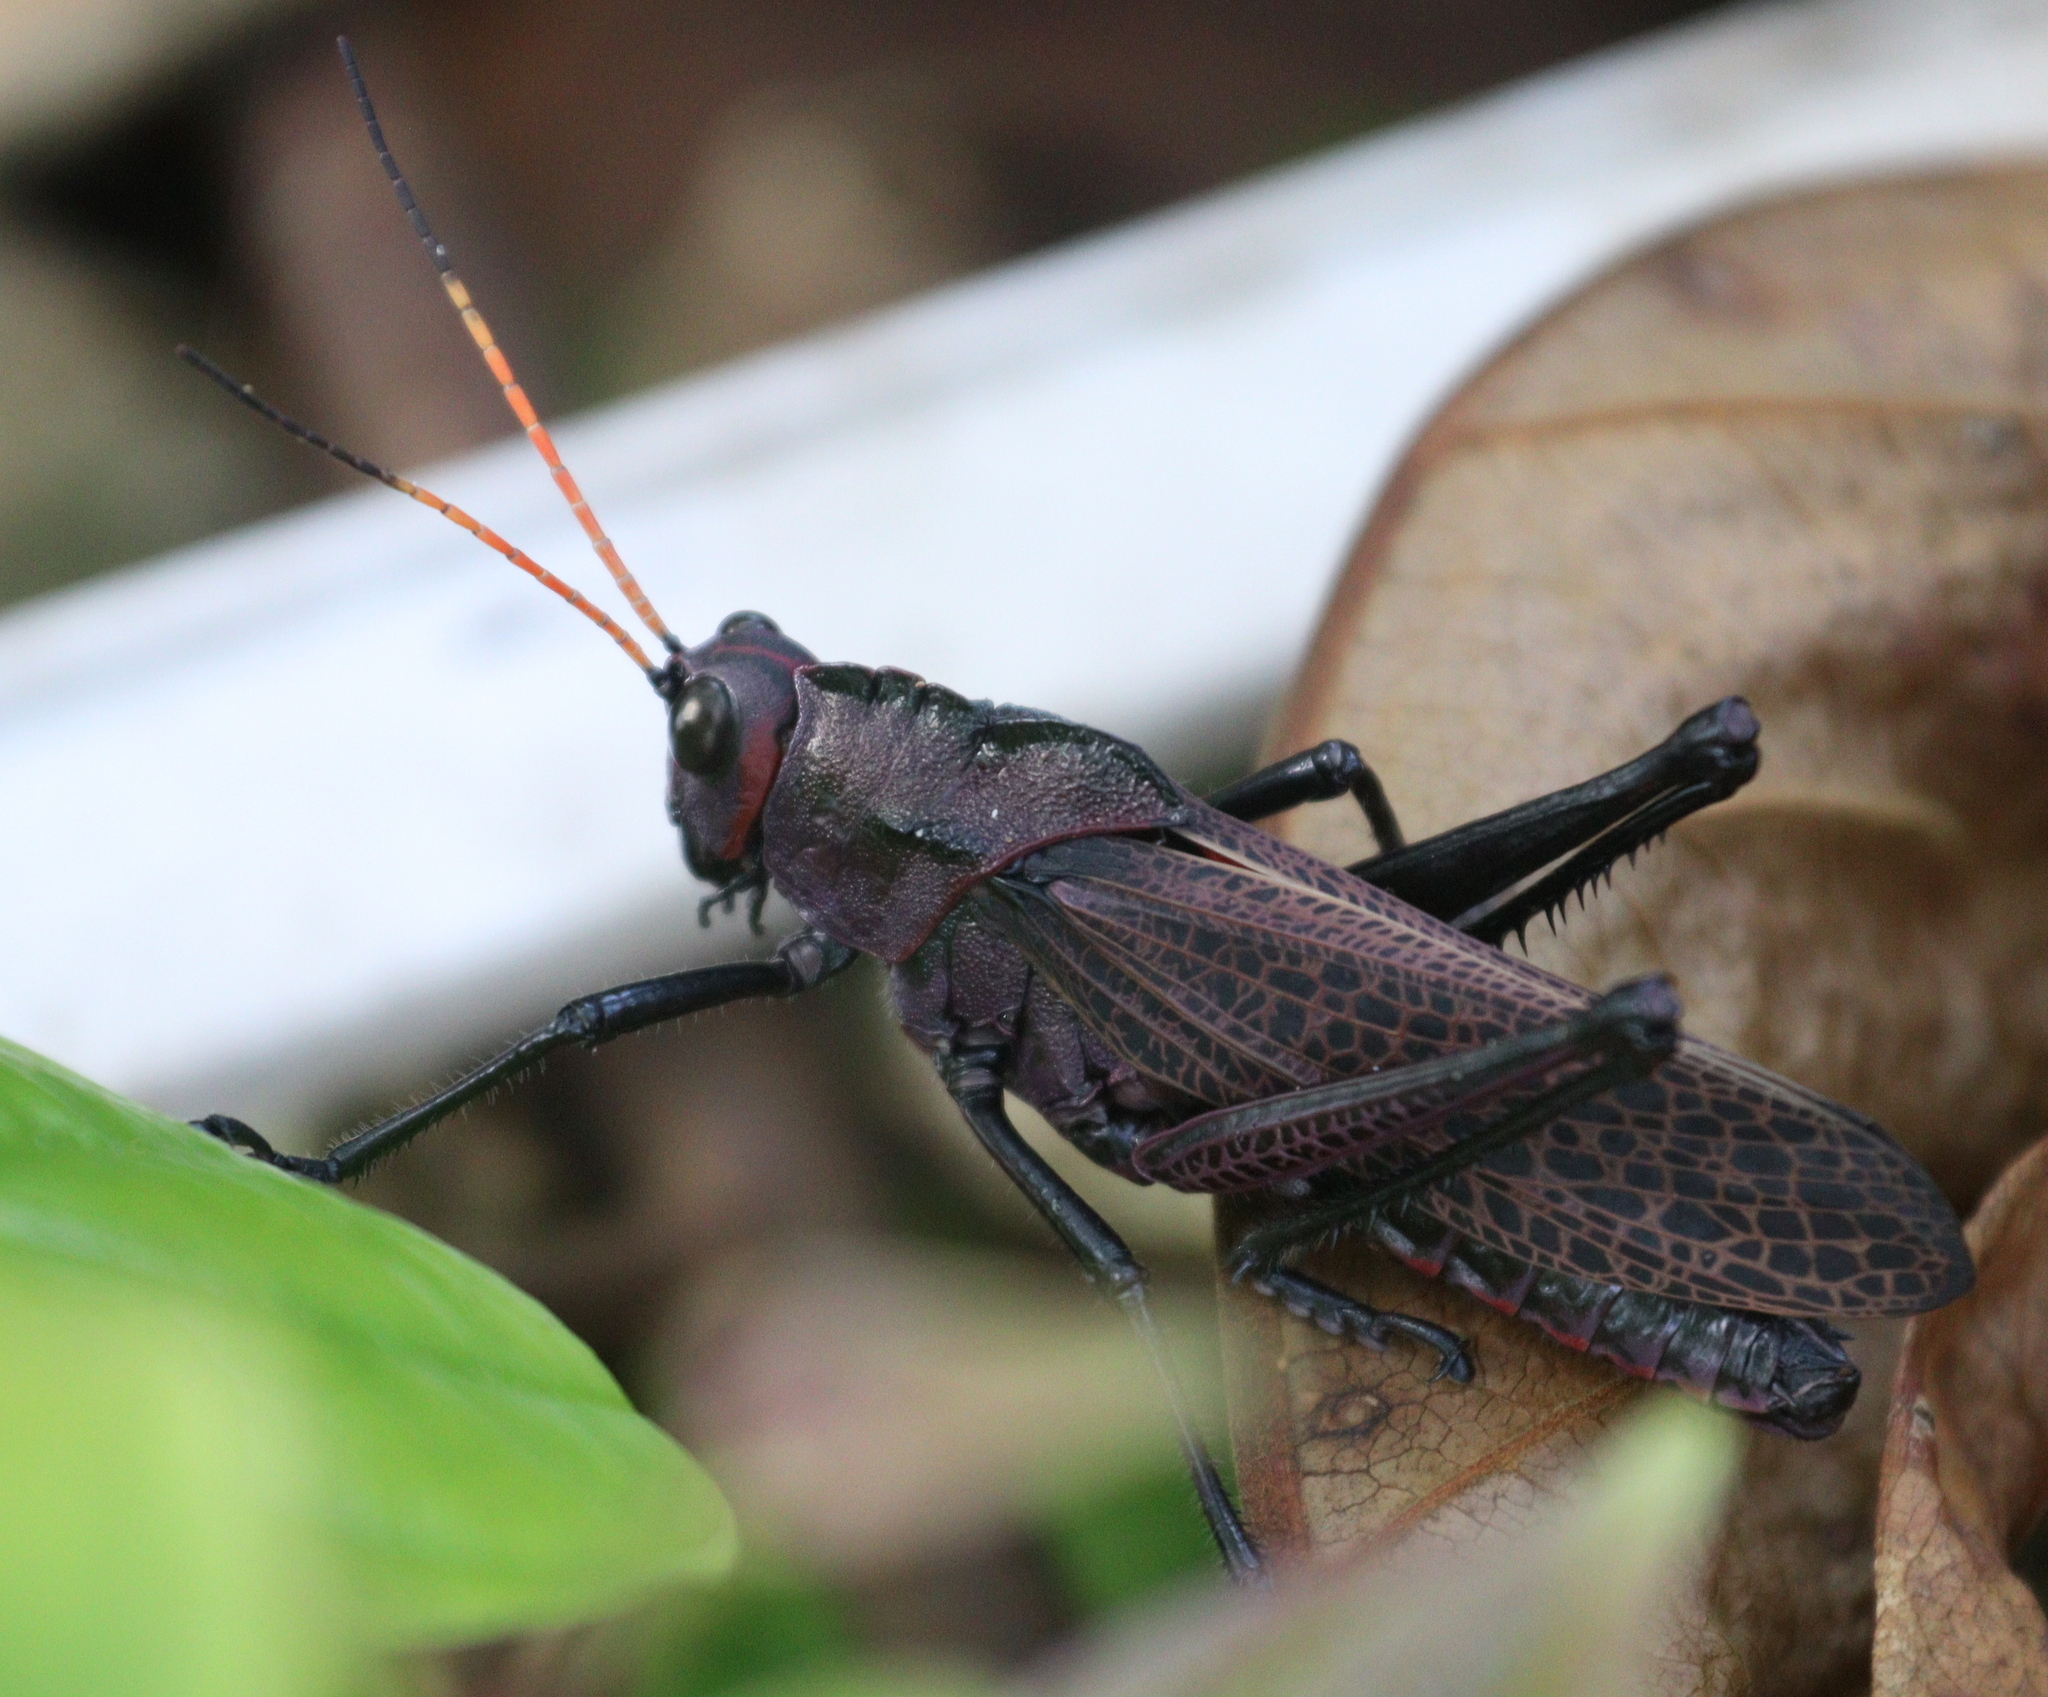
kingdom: Animalia
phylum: Arthropoda
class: Insecta
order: Orthoptera
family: Romaleidae
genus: Romalea
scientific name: Romalea
